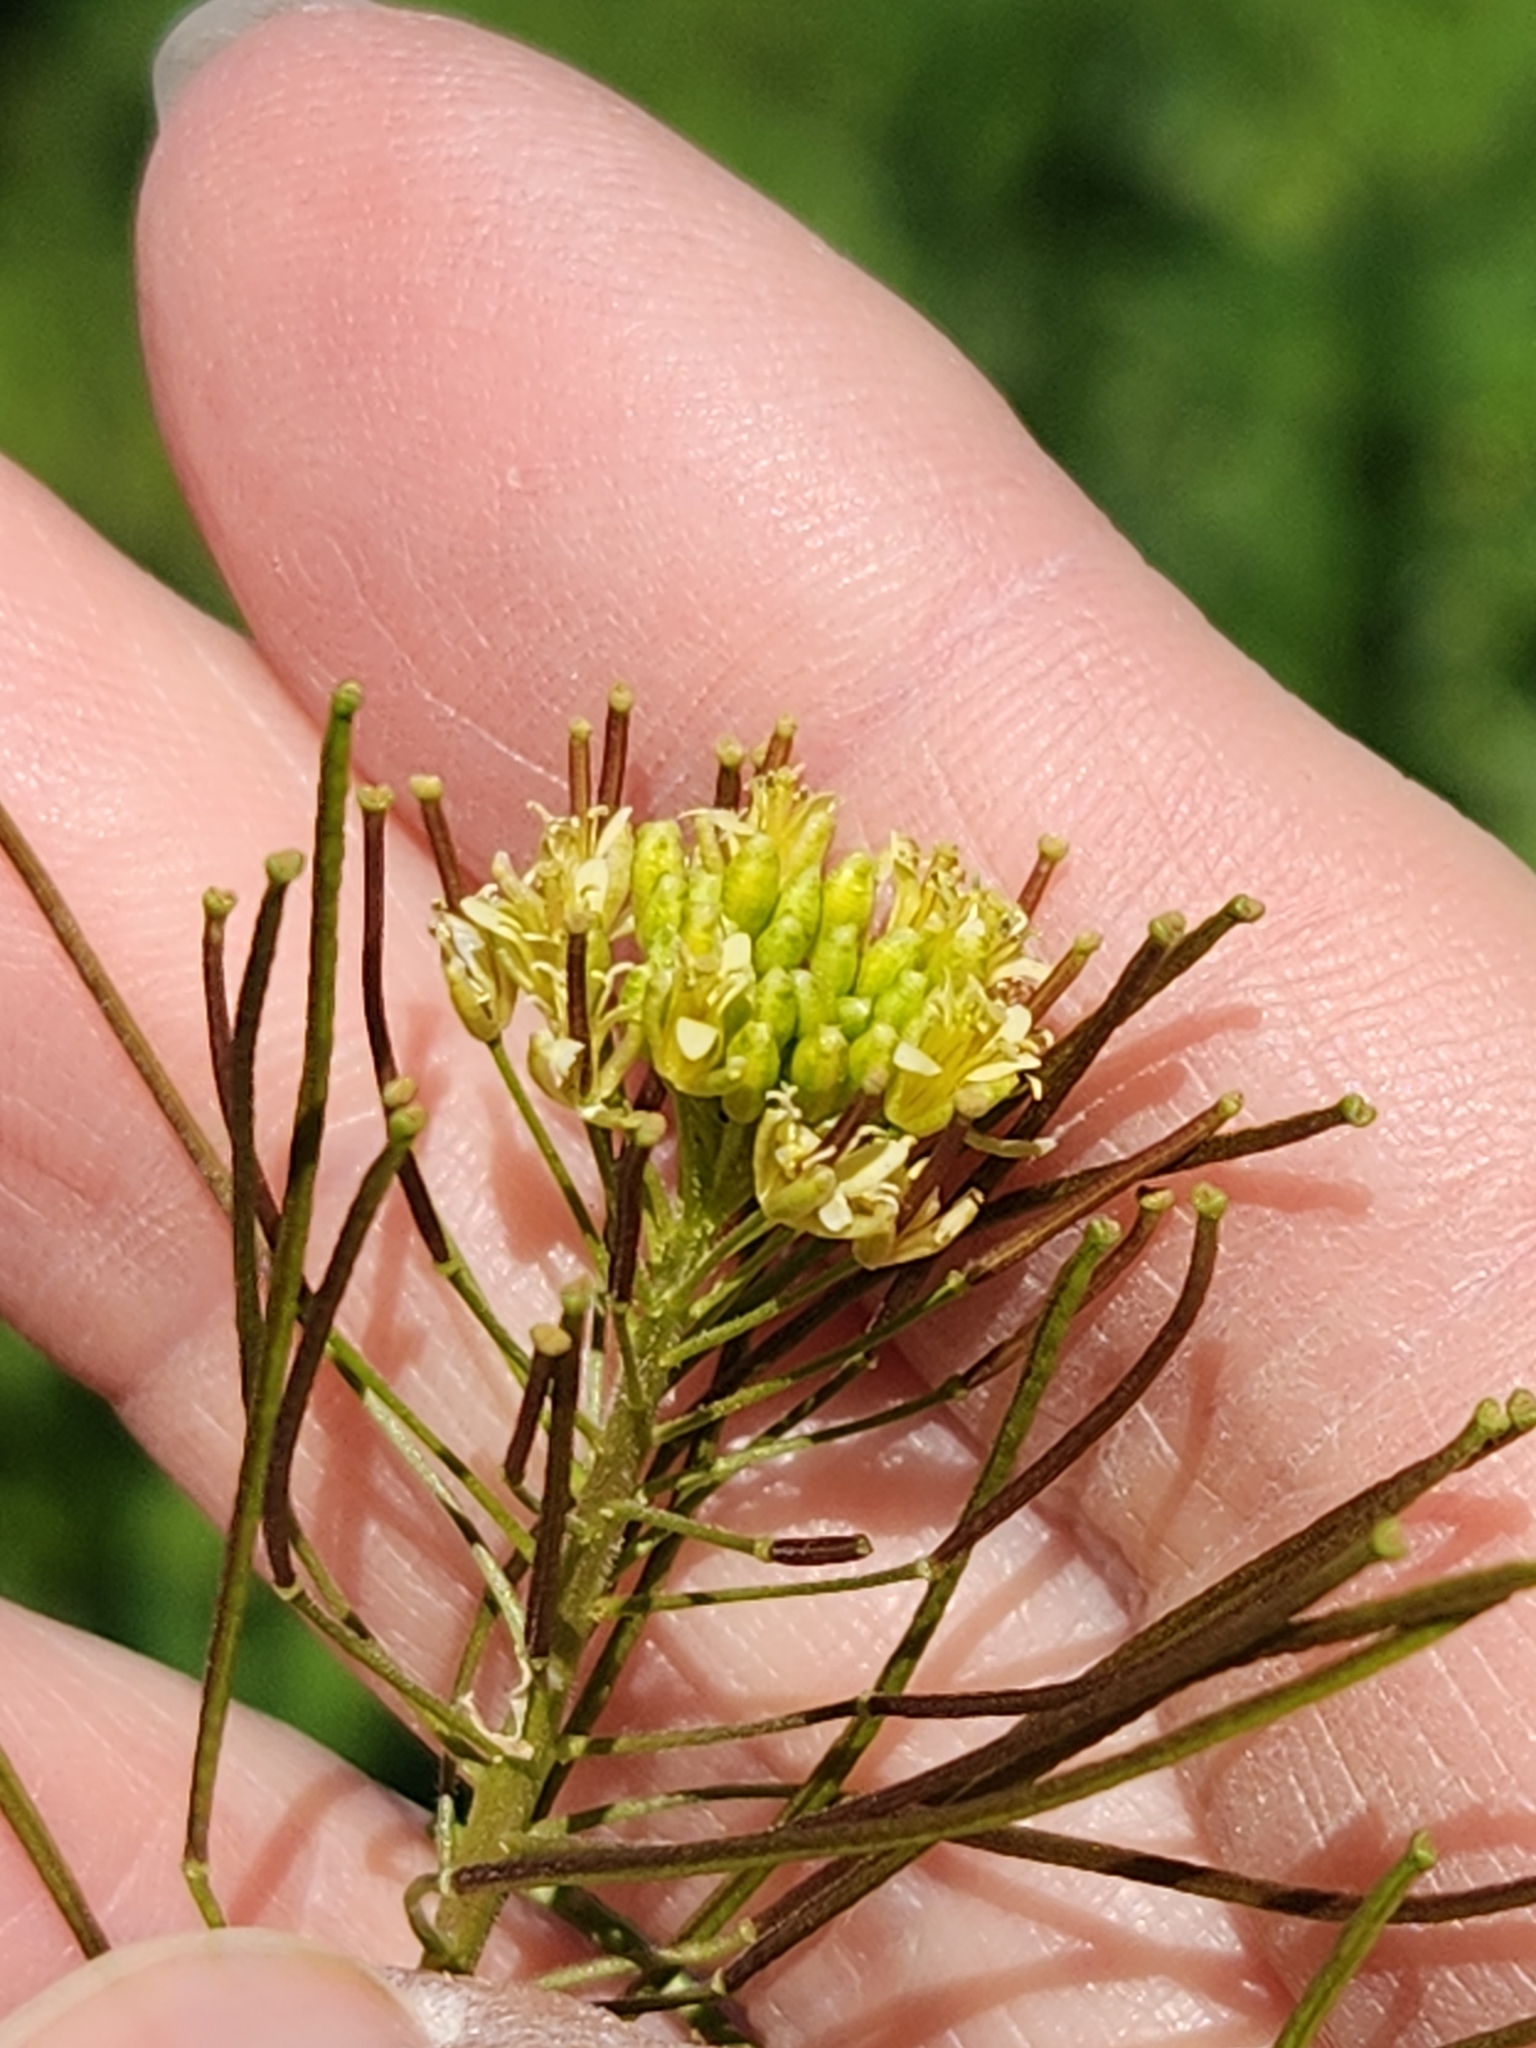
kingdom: Plantae
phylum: Tracheophyta
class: Magnoliopsida
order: Brassicales
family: Brassicaceae
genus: Sisymbrium
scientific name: Sisymbrium irio
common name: London rocket
